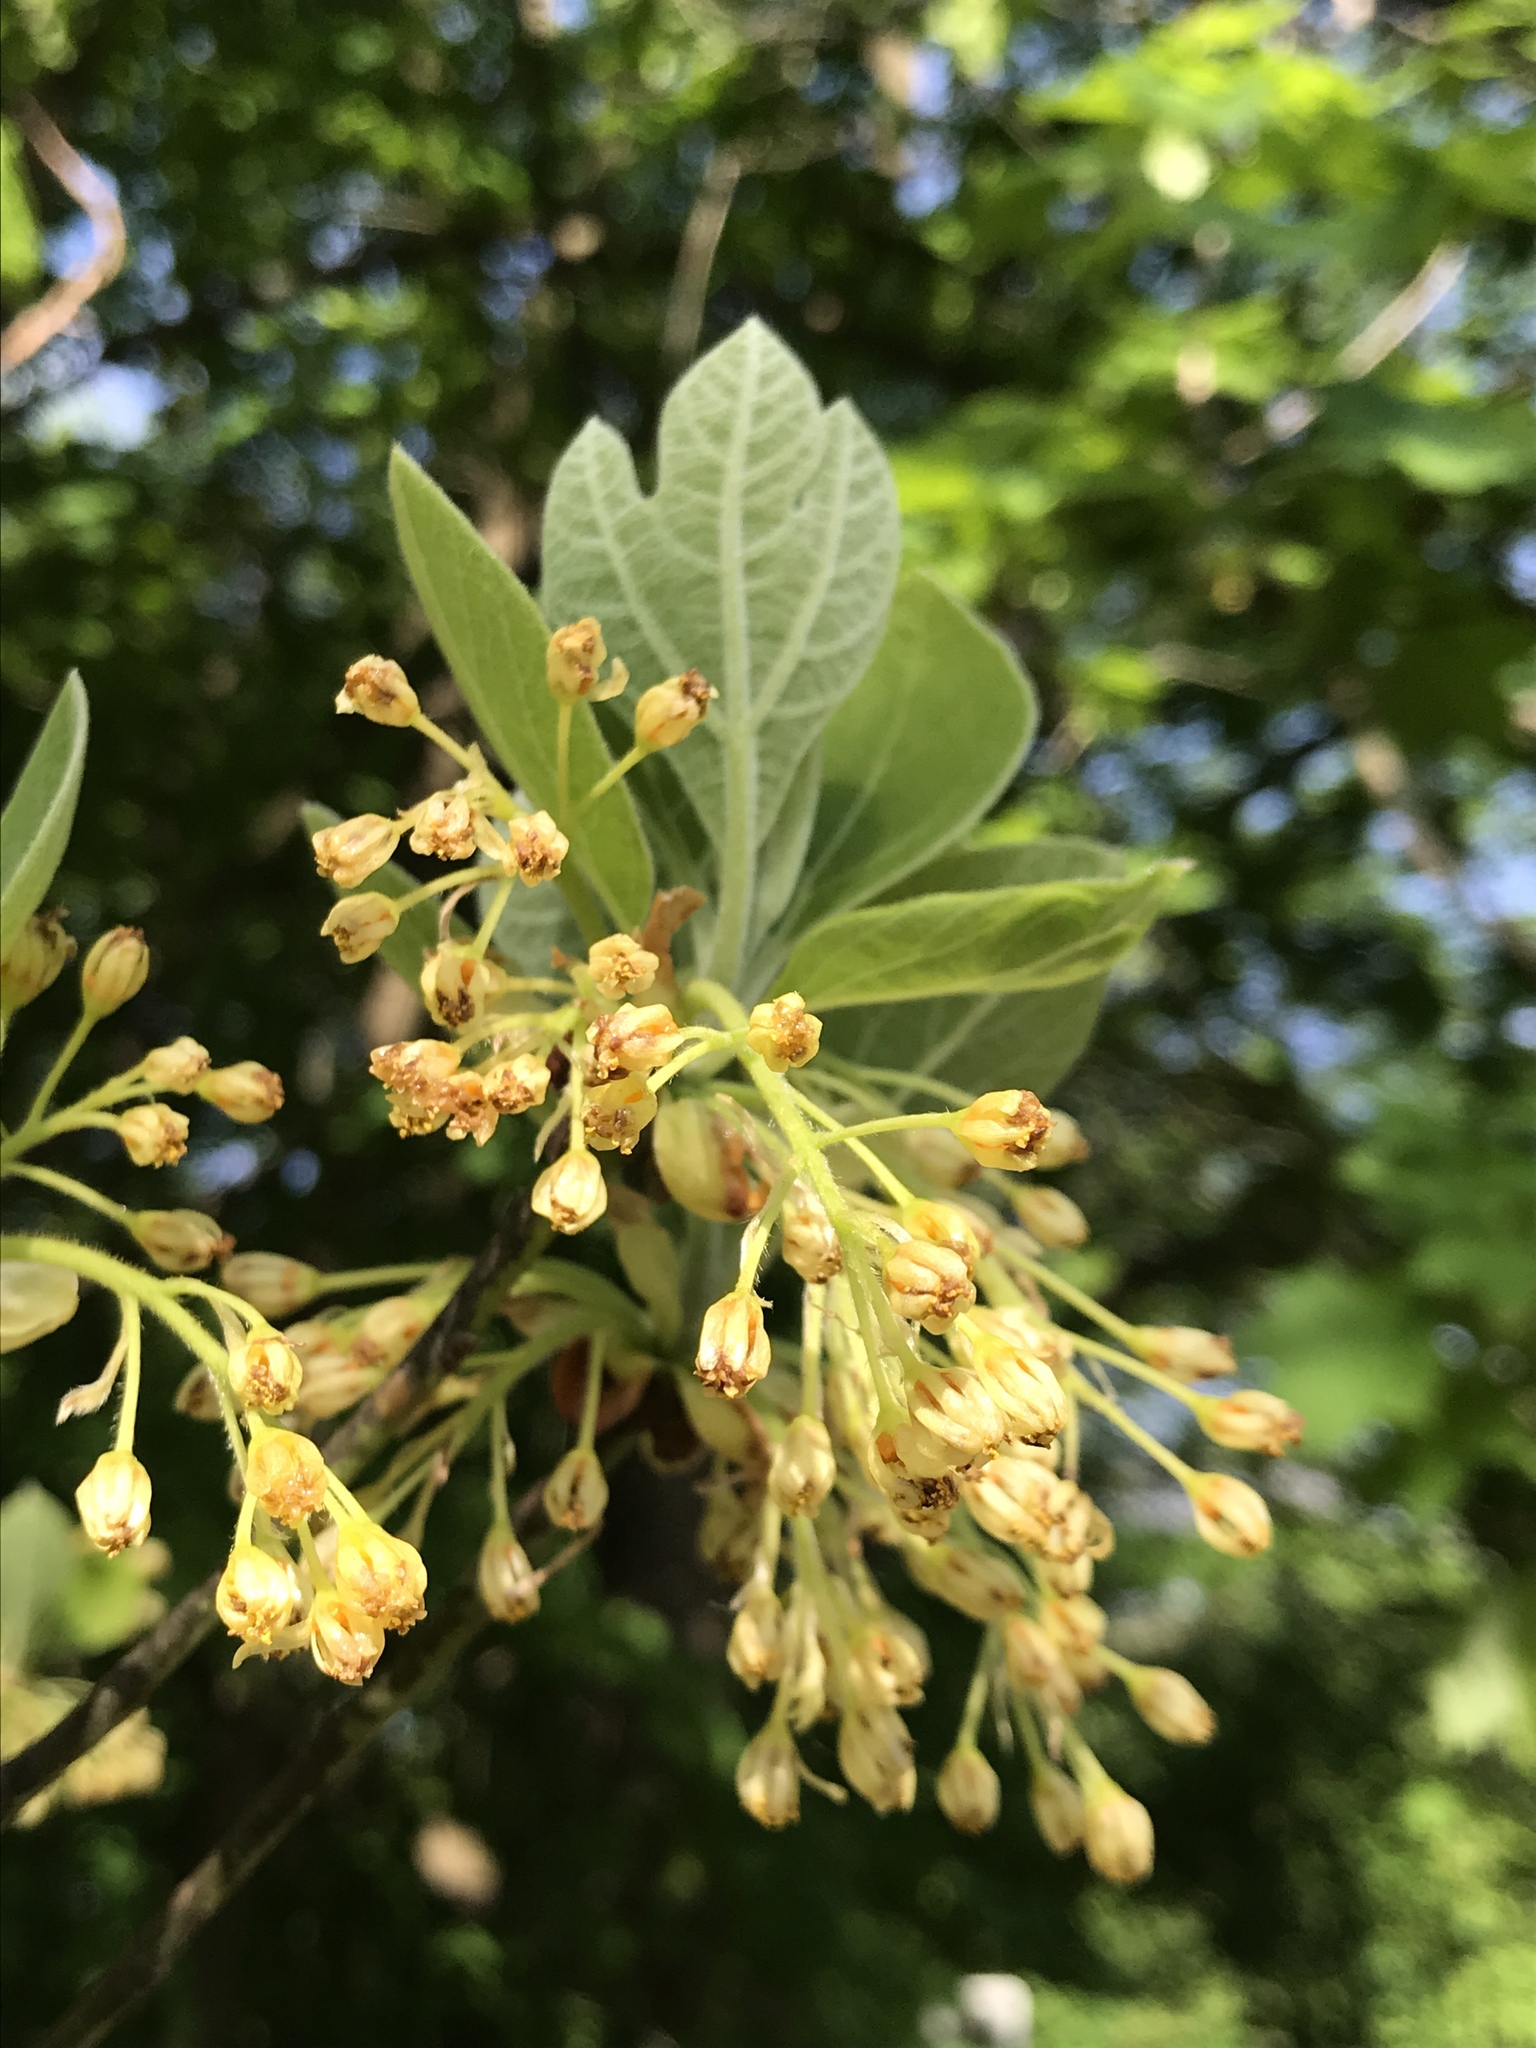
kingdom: Plantae
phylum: Tracheophyta
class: Magnoliopsida
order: Laurales
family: Lauraceae
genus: Sassafras
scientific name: Sassafras albidum
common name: Sassafras
